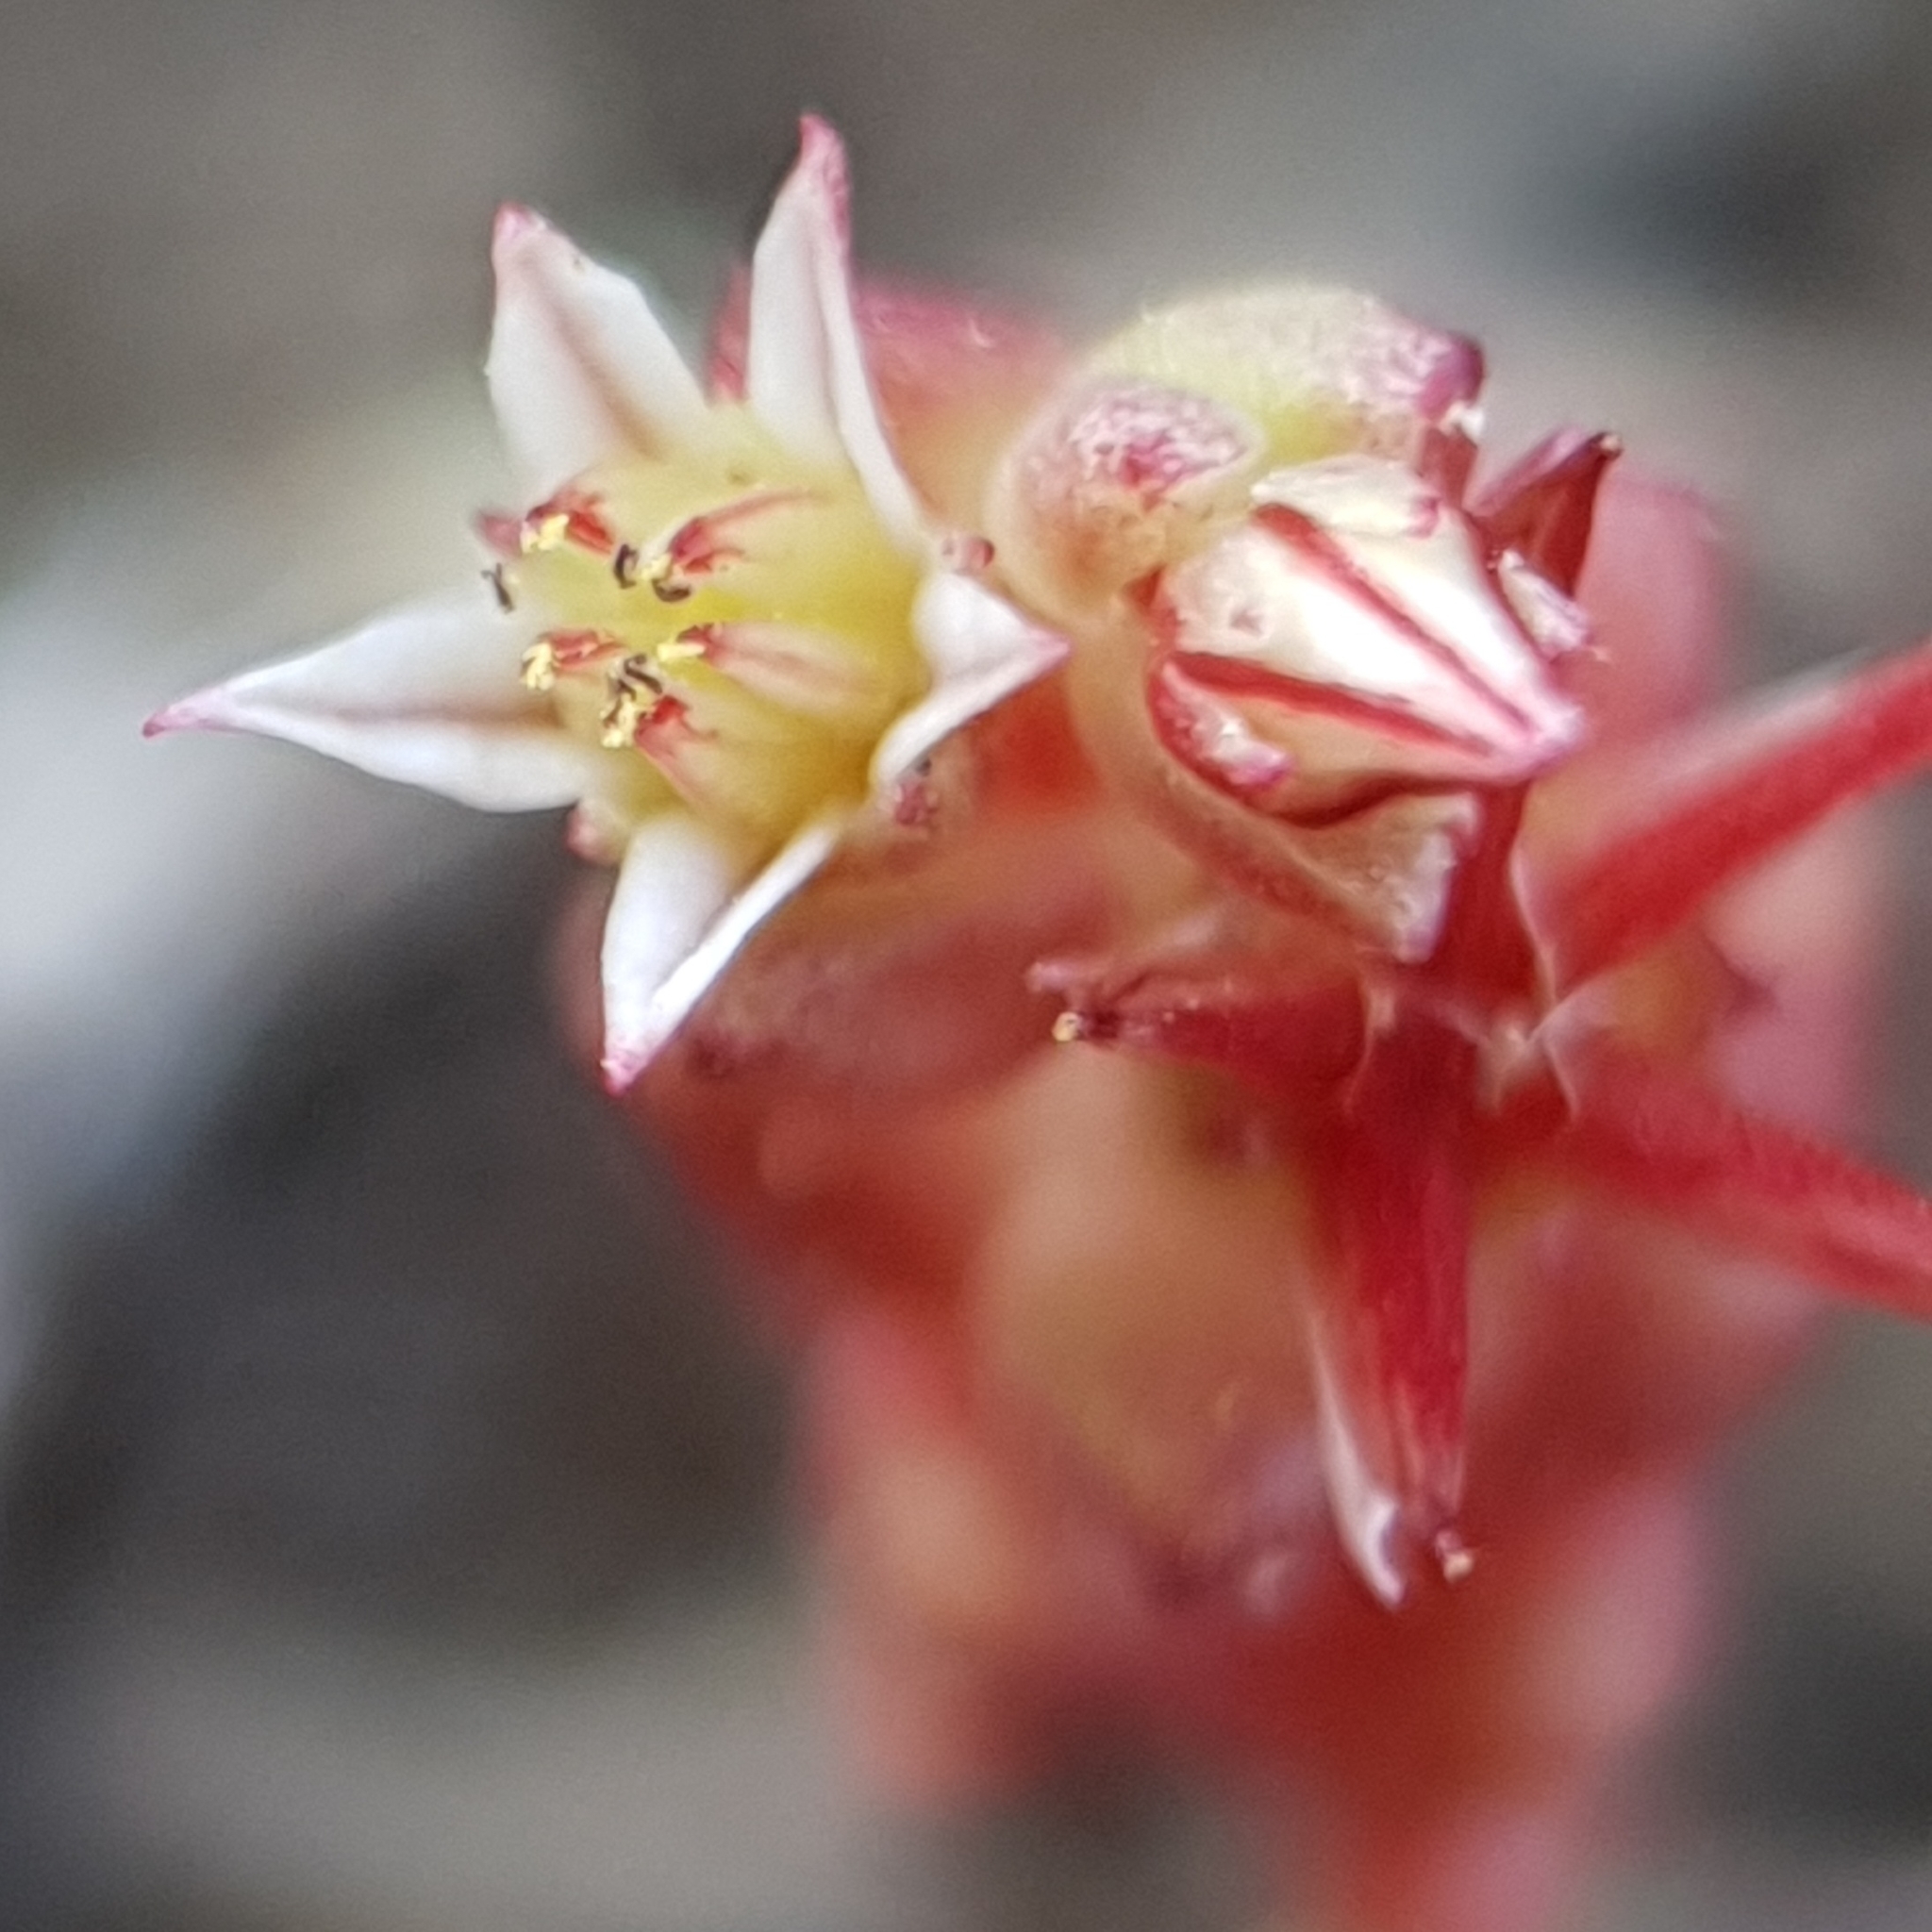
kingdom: Plantae
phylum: Tracheophyta
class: Magnoliopsida
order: Saxifragales
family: Crassulaceae
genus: Sedum
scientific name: Sedum cespitosum
